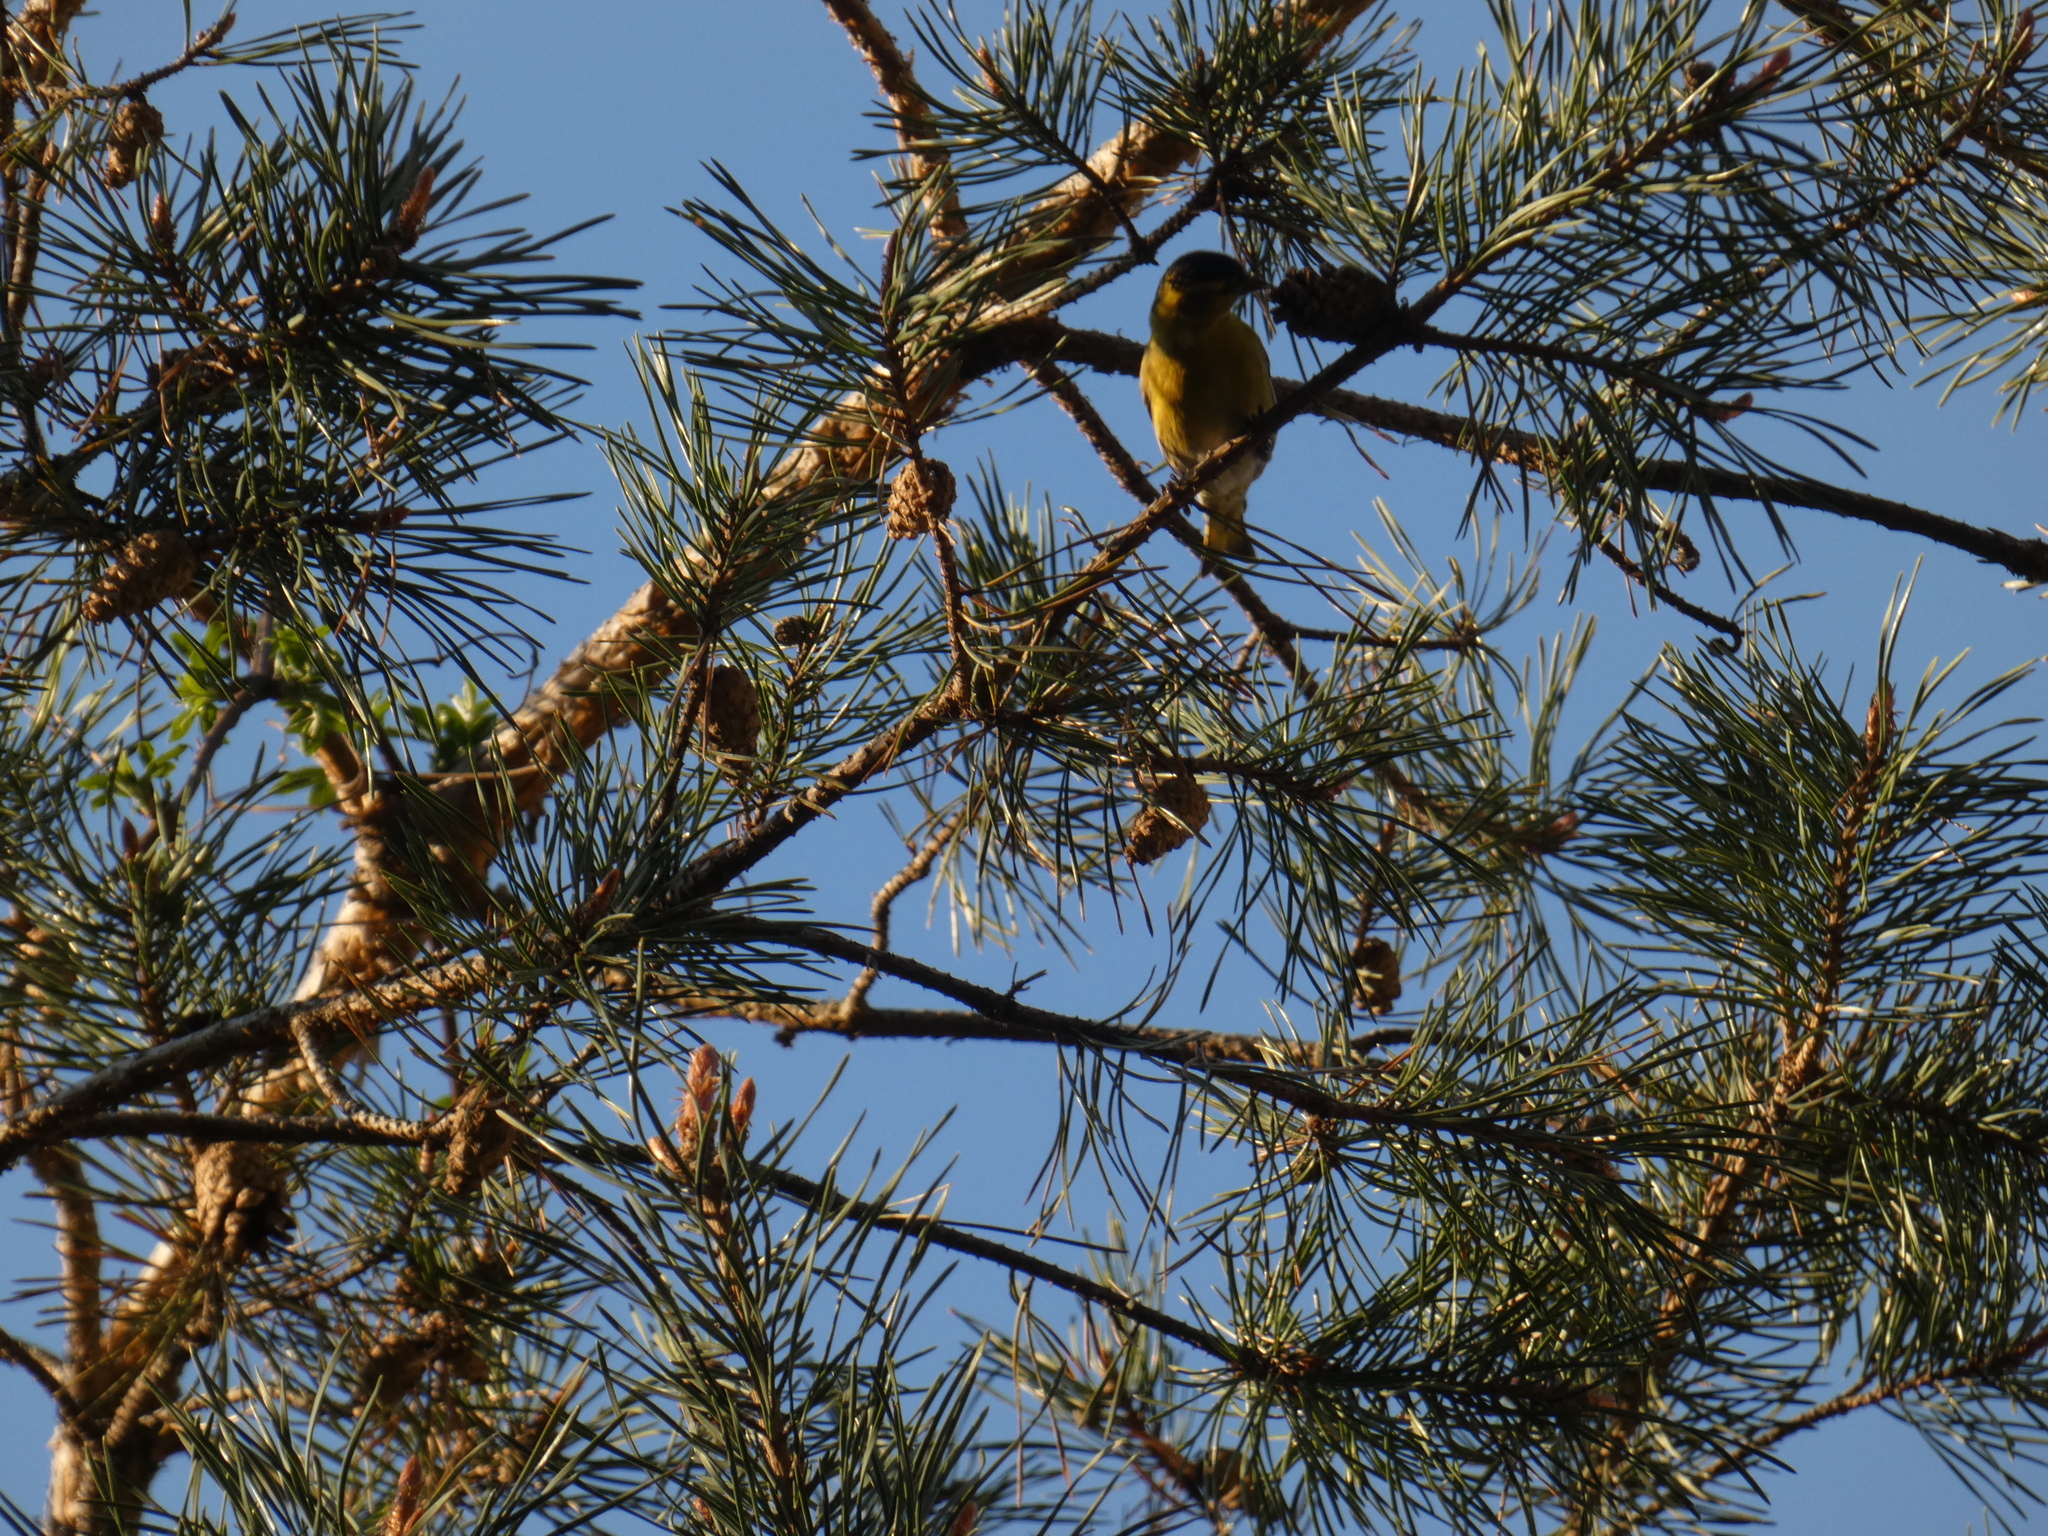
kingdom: Animalia
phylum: Chordata
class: Aves
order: Passeriformes
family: Fringillidae
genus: Spinus
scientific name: Spinus spinus
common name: Eurasian siskin
